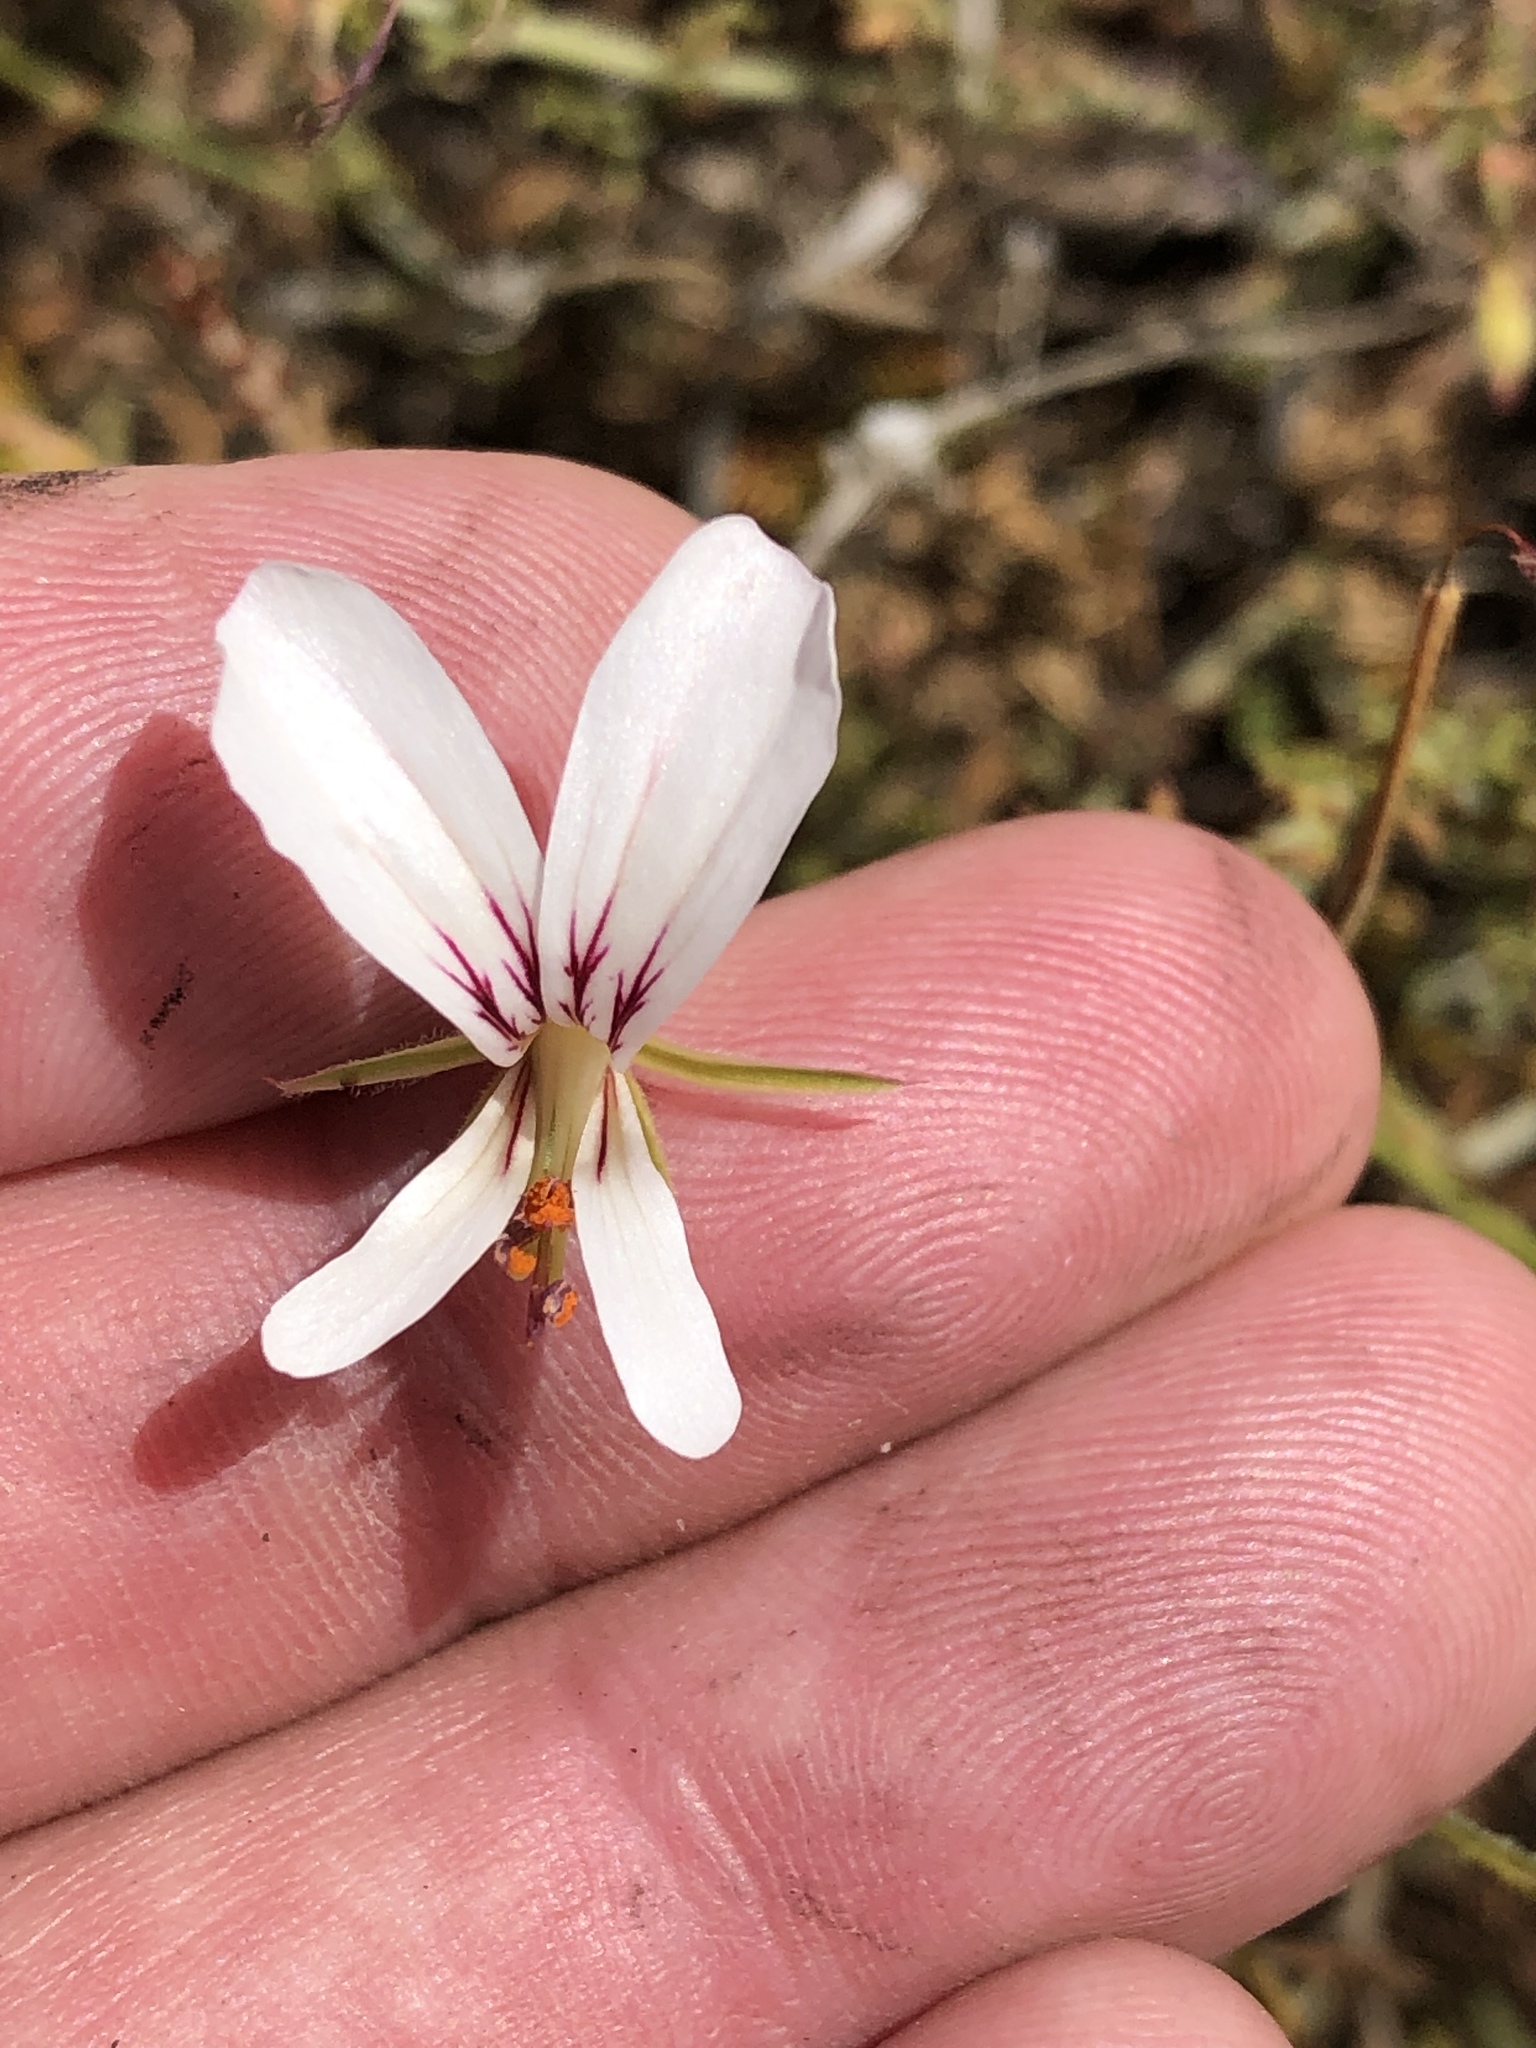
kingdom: Plantae
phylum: Tracheophyta
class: Magnoliopsida
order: Geraniales
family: Geraniaceae
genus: Pelargonium
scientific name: Pelargonium caucalifolium
